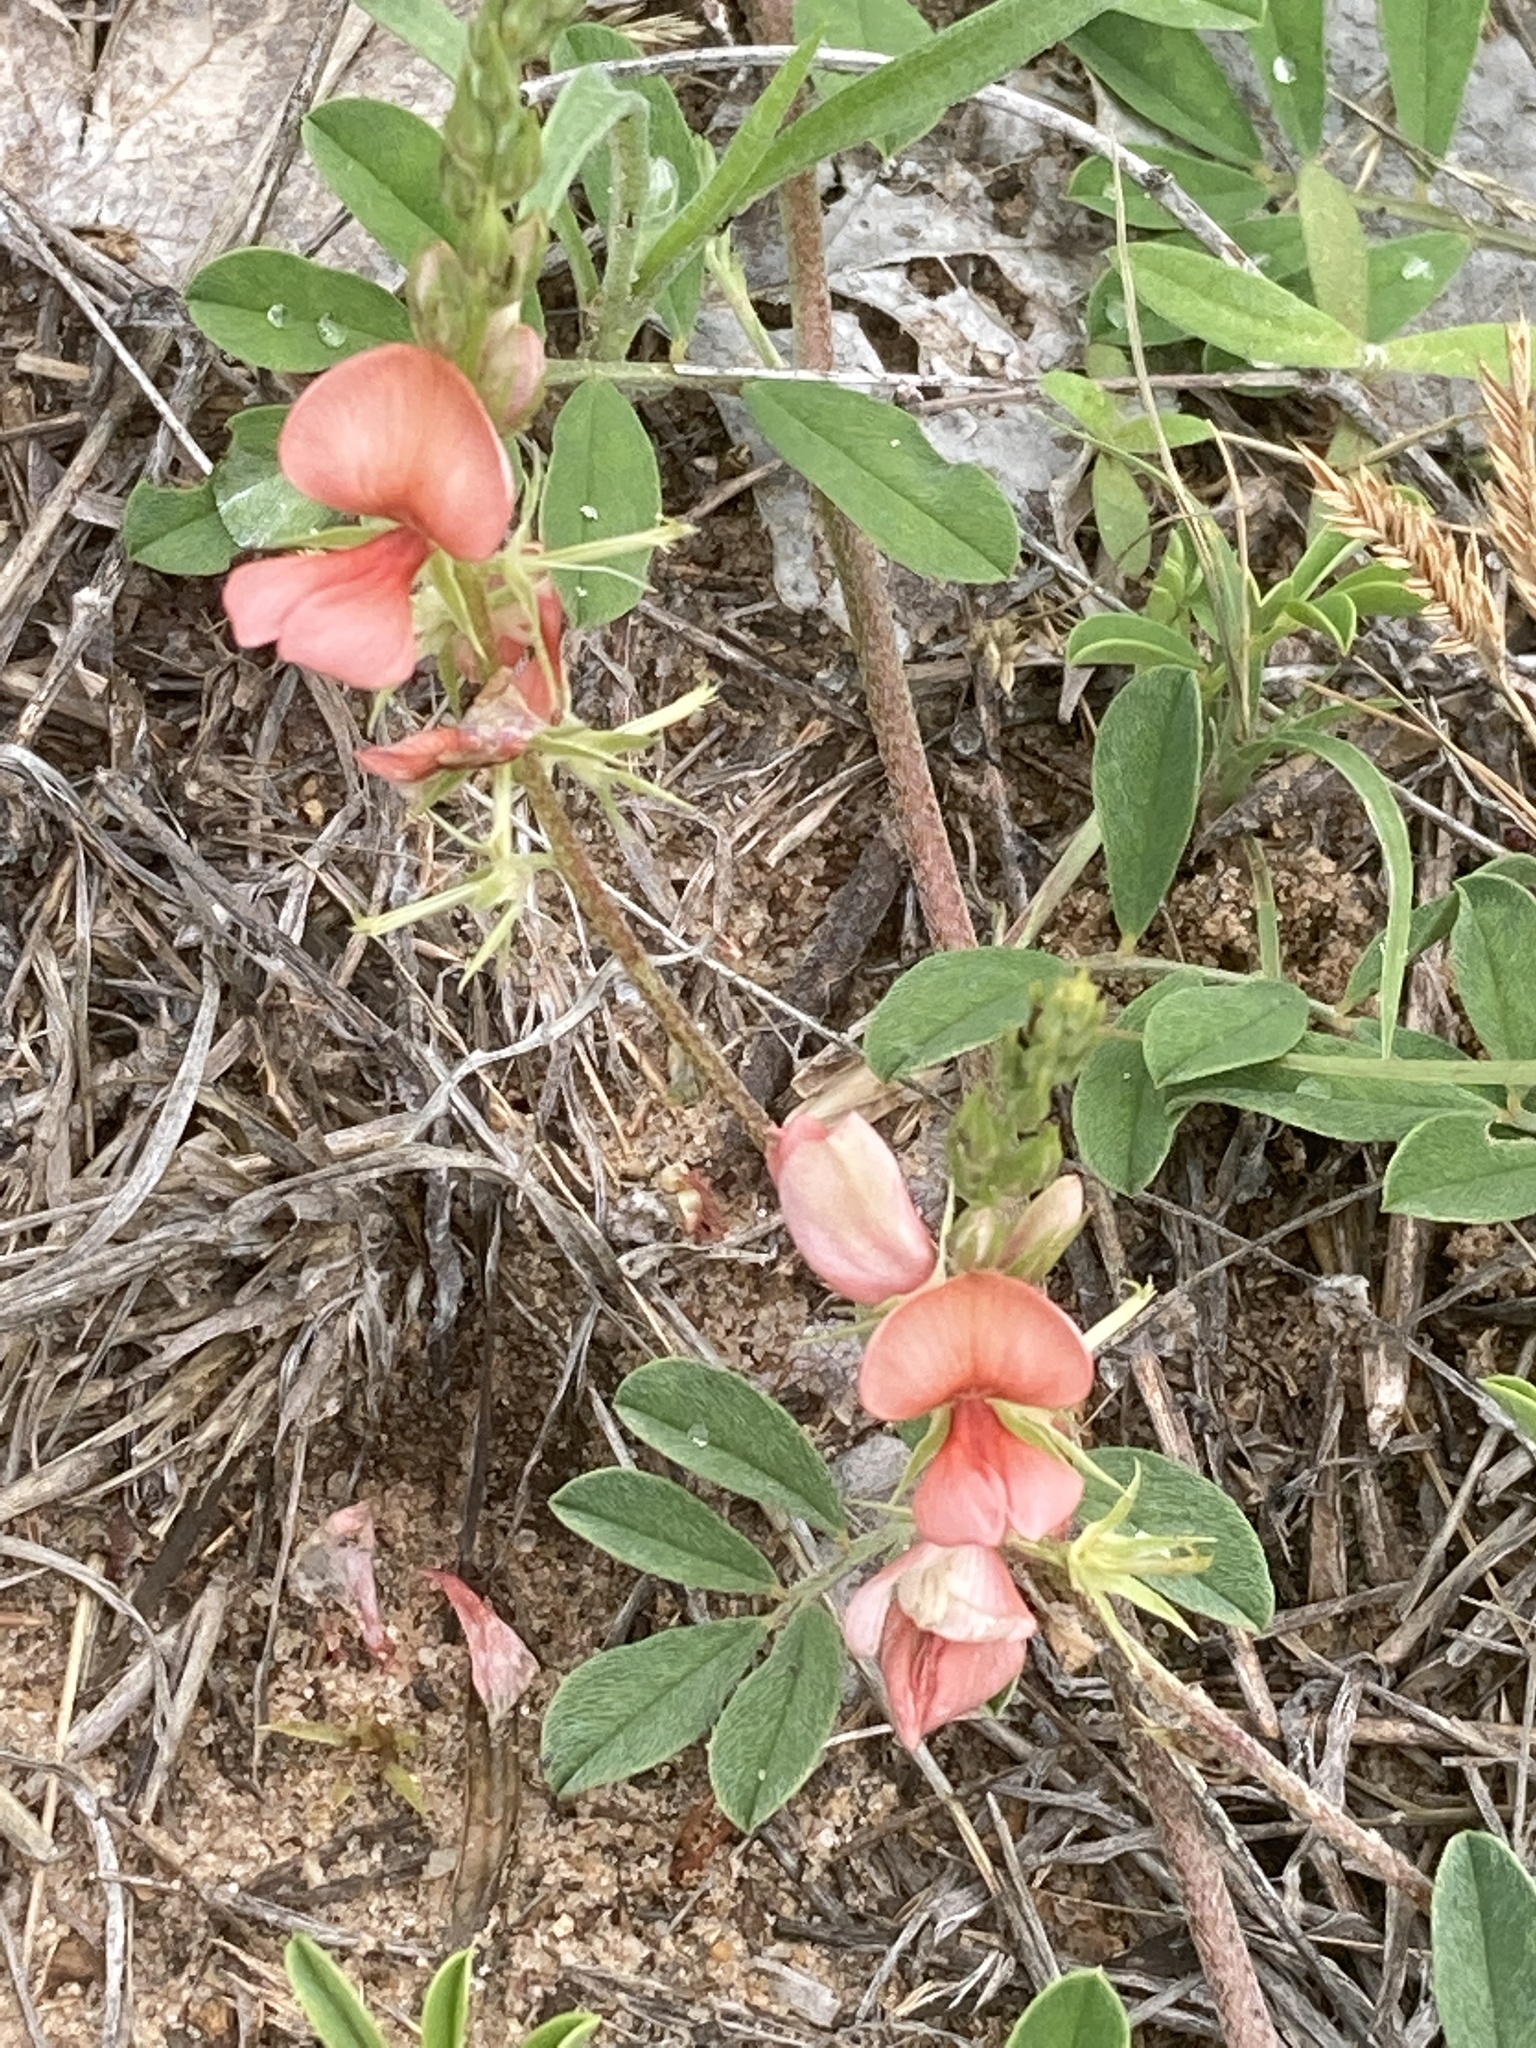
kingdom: Plantae
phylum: Tracheophyta
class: Magnoliopsida
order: Fabales
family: Fabaceae
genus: Indigofera
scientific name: Indigofera miniata
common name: Coast indigo
